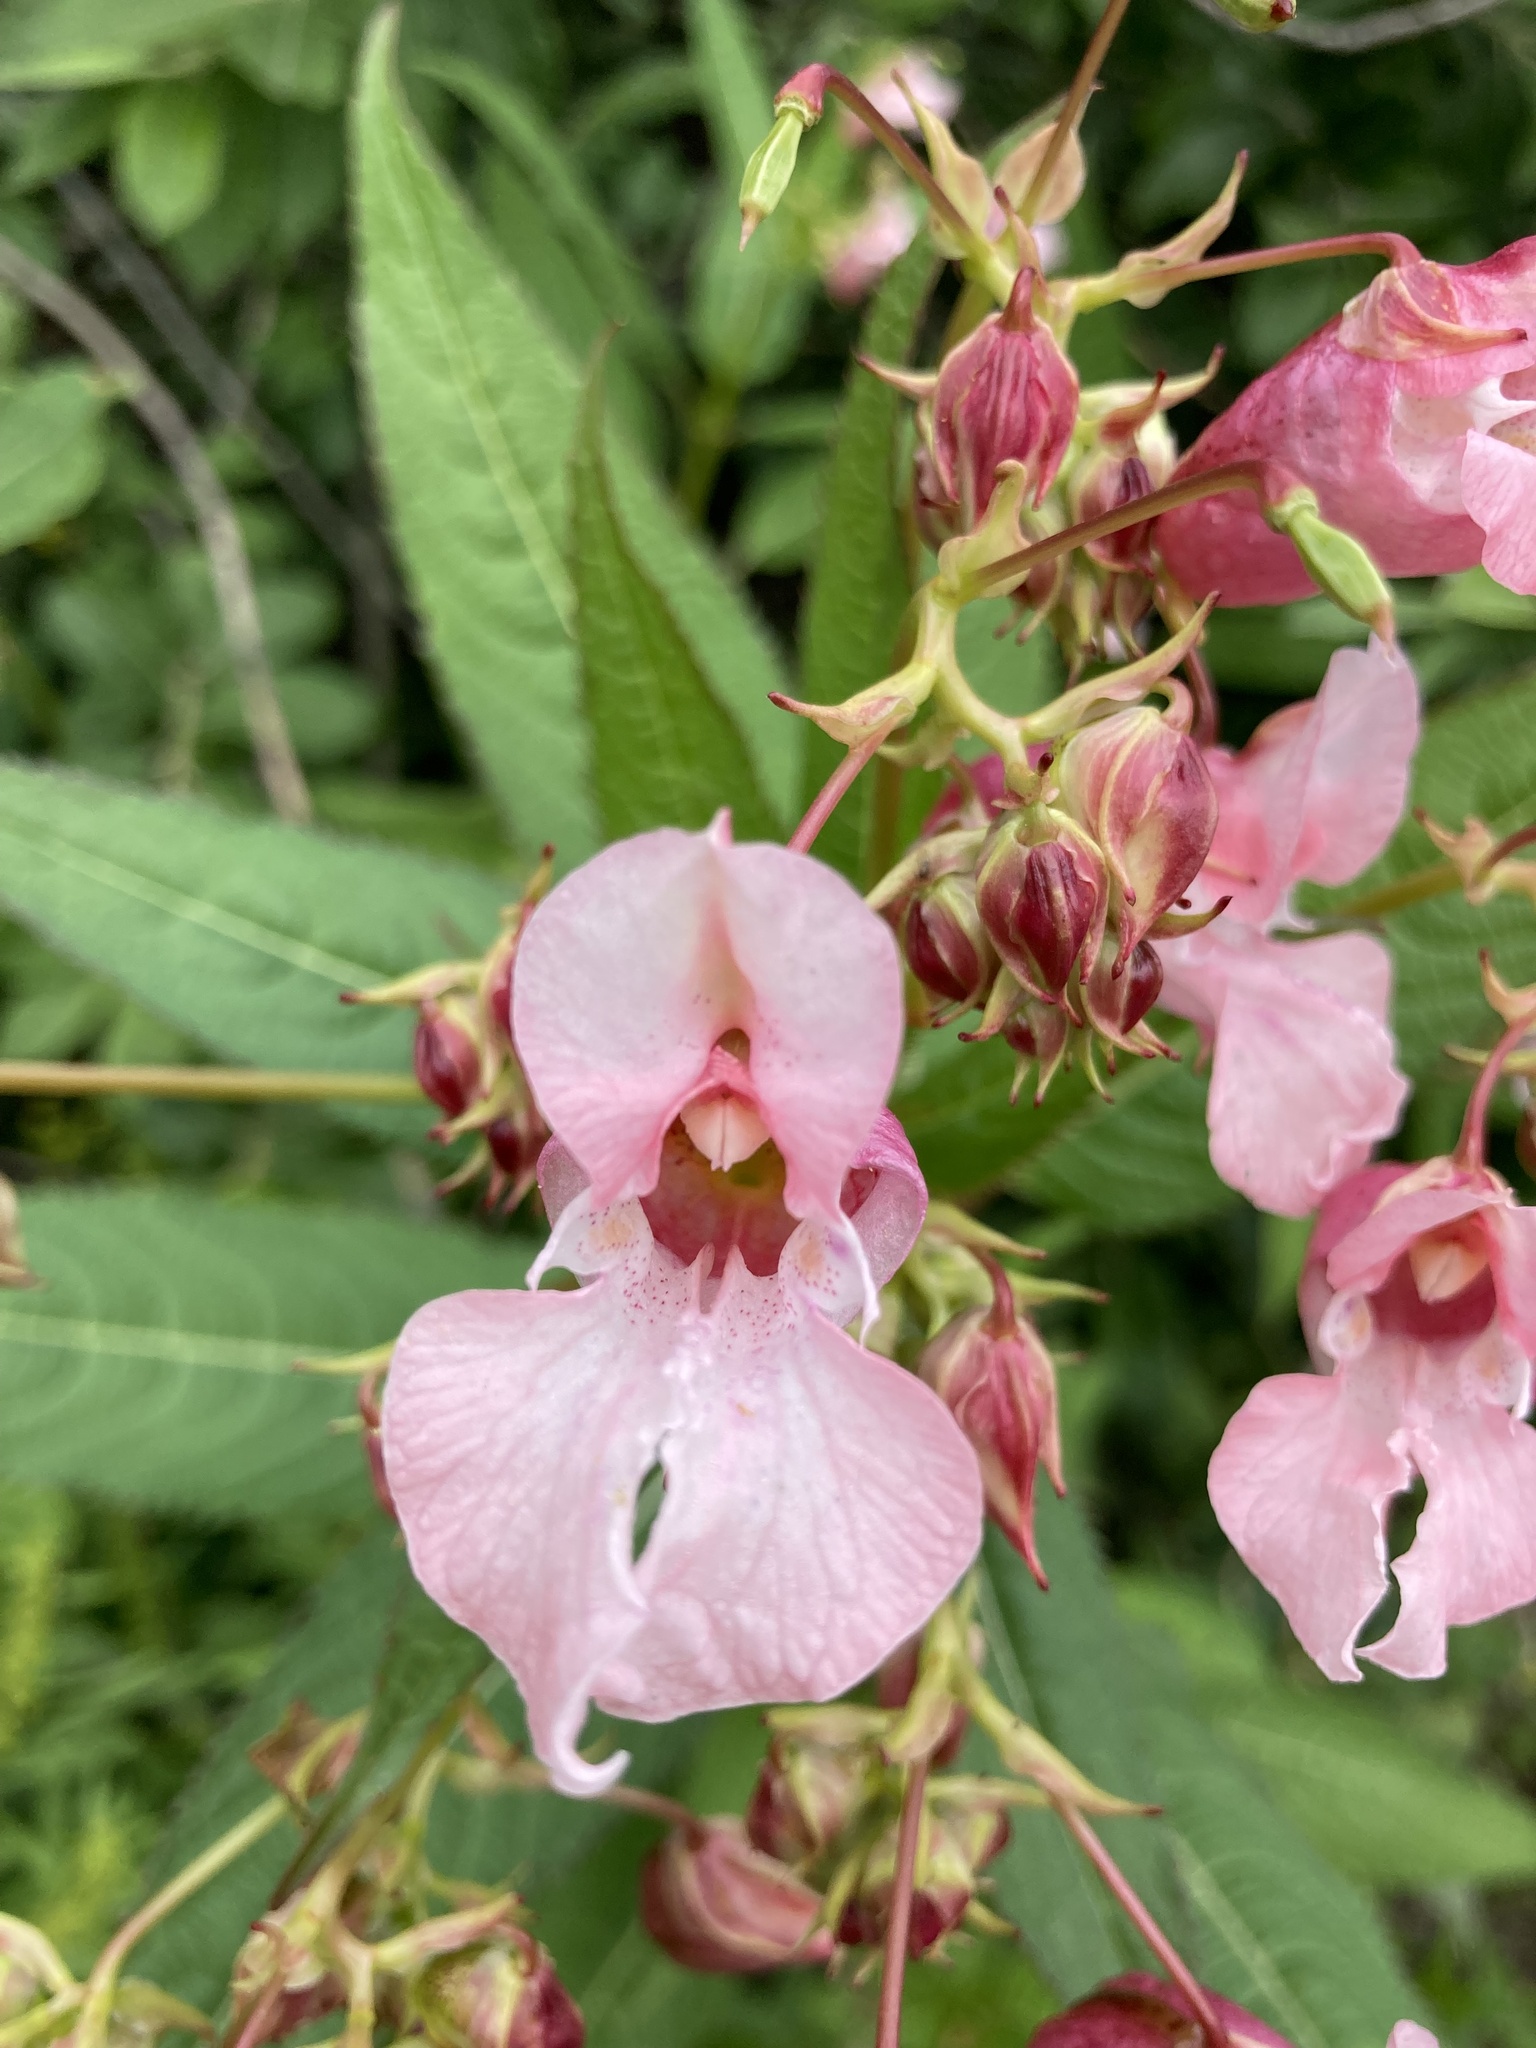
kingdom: Plantae
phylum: Tracheophyta
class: Magnoliopsida
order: Ericales
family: Balsaminaceae
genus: Impatiens
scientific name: Impatiens glandulifera
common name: Himalayan balsam
